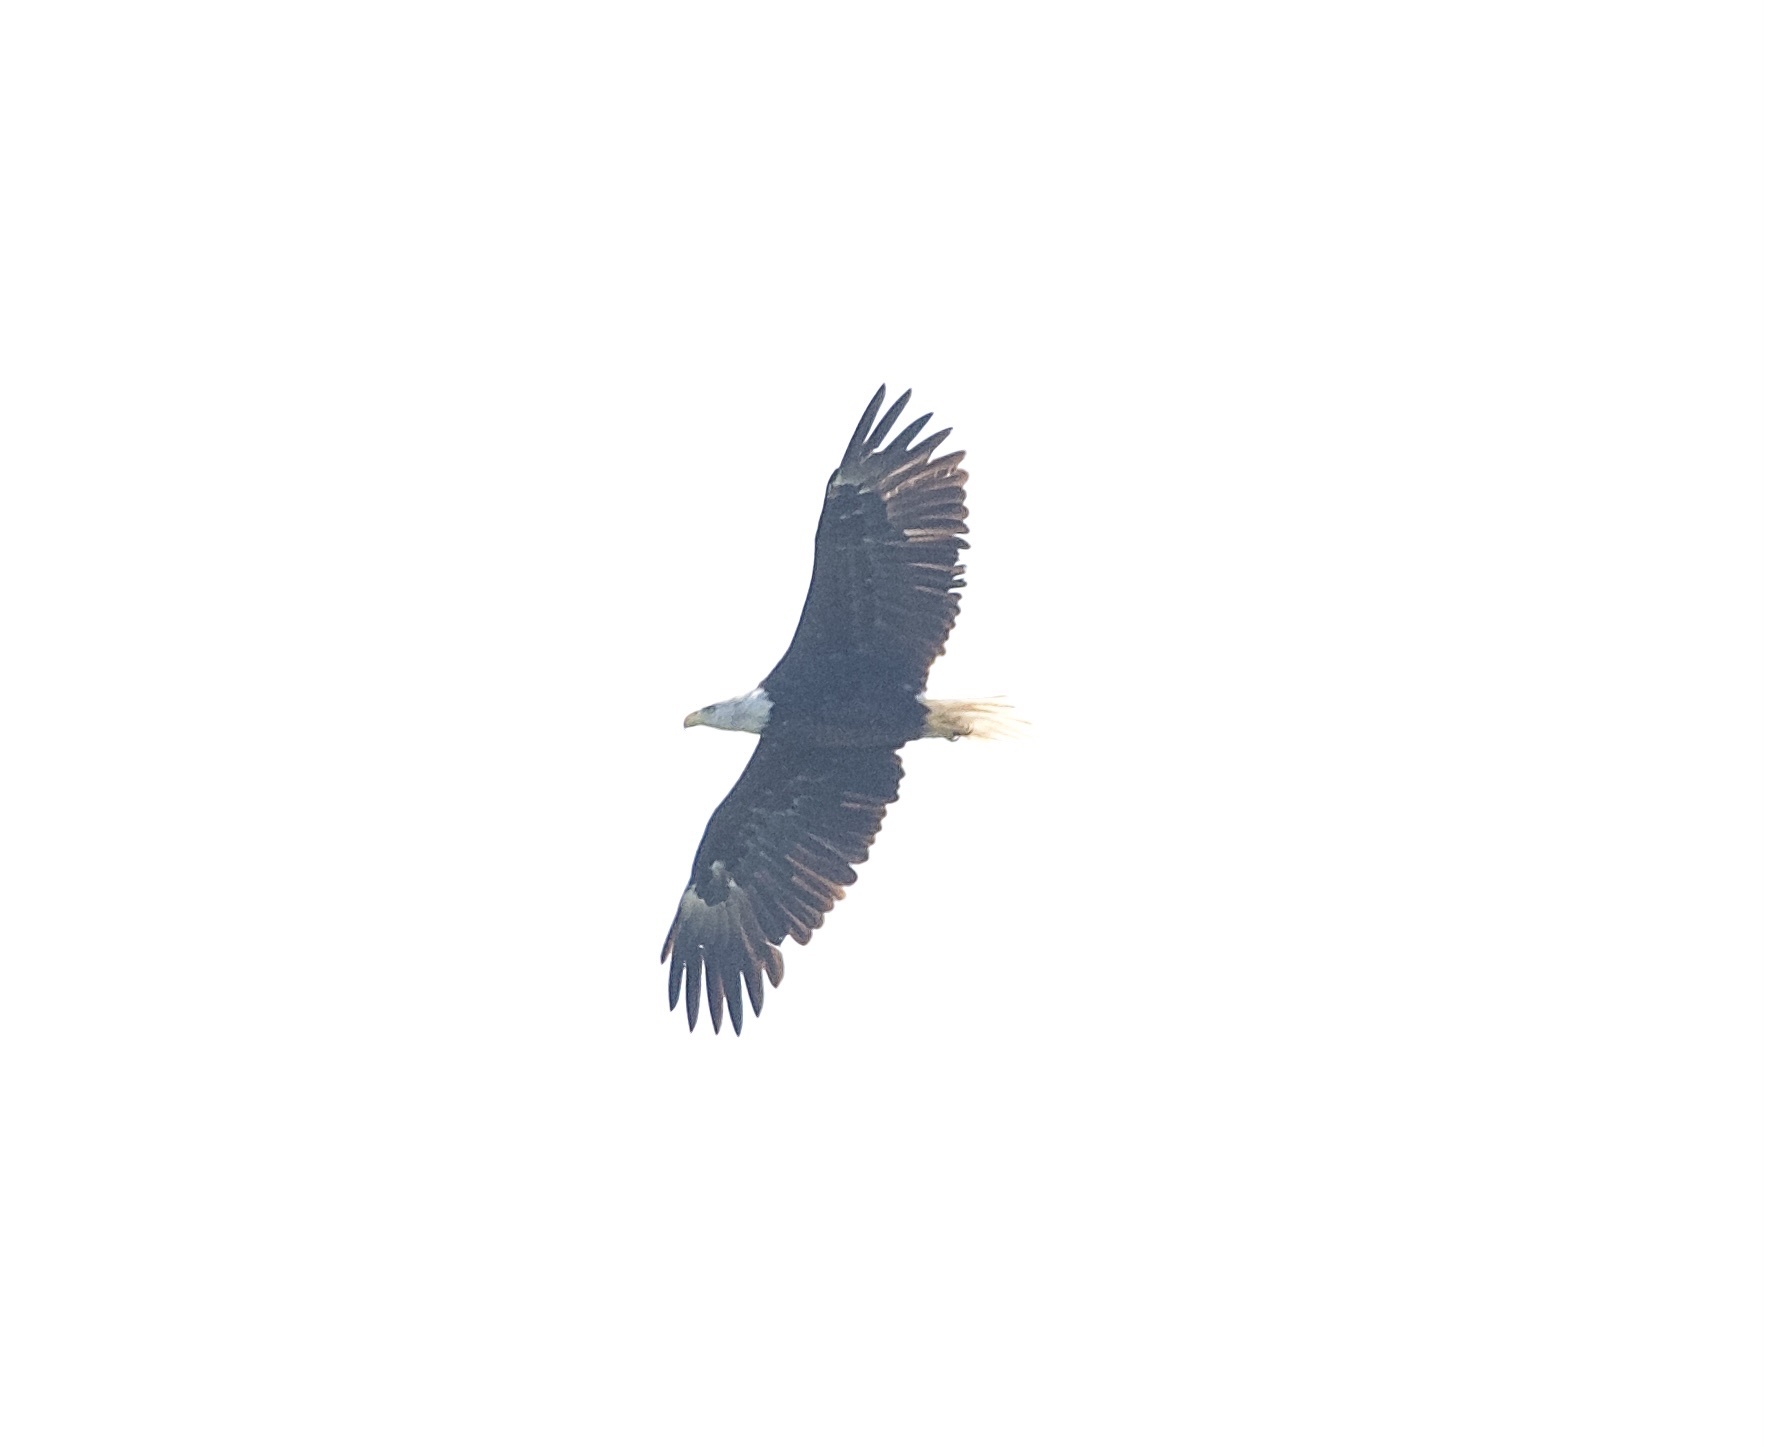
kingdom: Animalia
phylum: Chordata
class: Aves
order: Accipitriformes
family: Accipitridae
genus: Haliaeetus
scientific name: Haliaeetus leucocephalus
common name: Bald eagle
